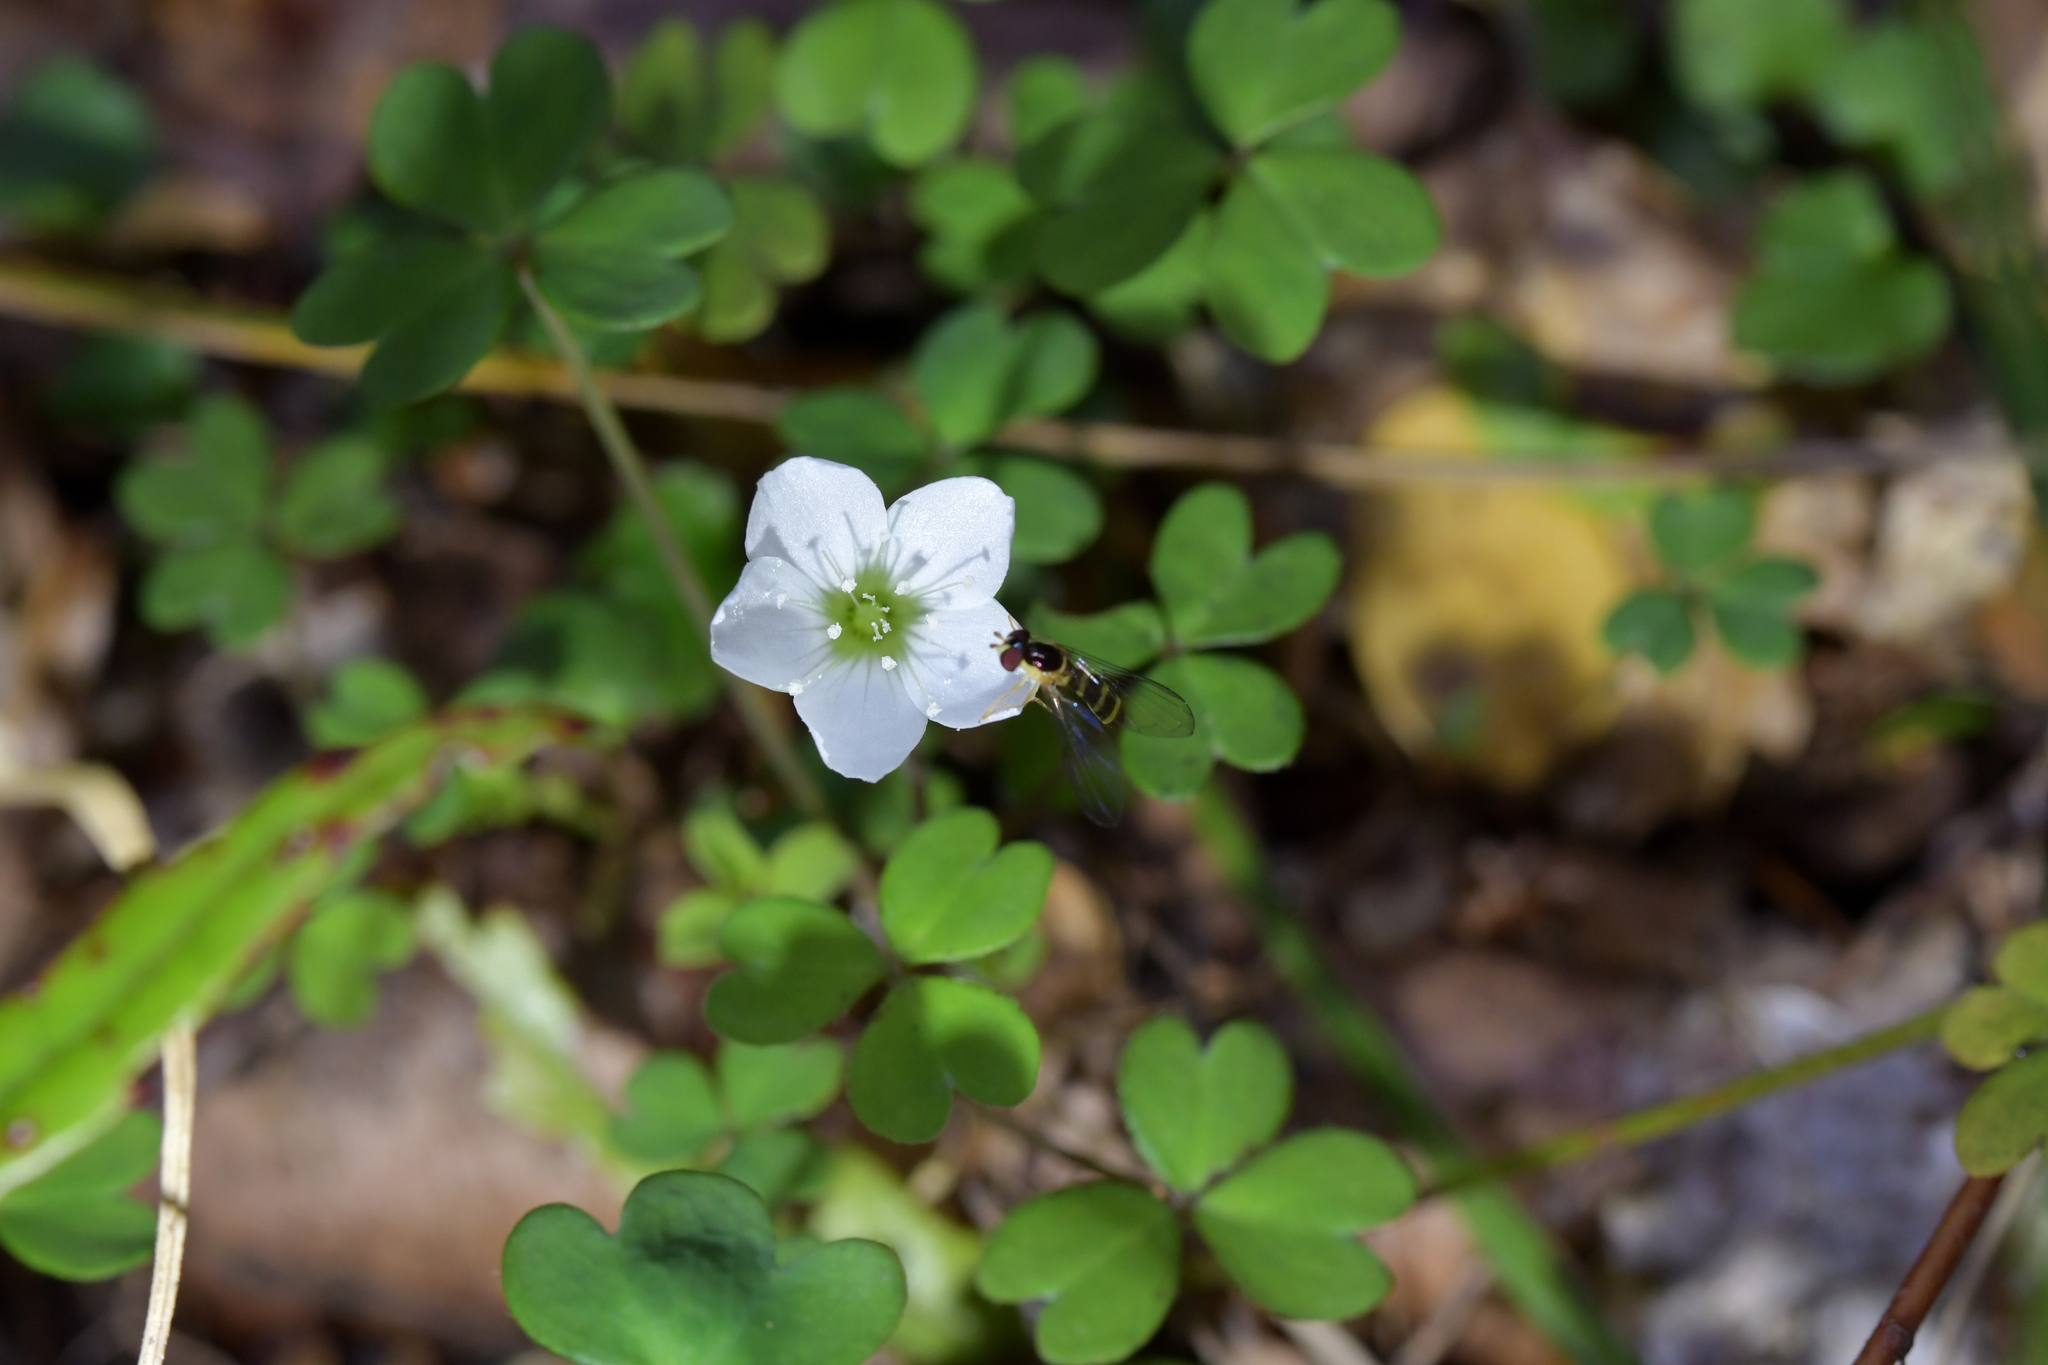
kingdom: Plantae
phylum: Tracheophyta
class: Magnoliopsida
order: Oxalidales
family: Oxalidaceae
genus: Oxalis
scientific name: Oxalis magellanica
